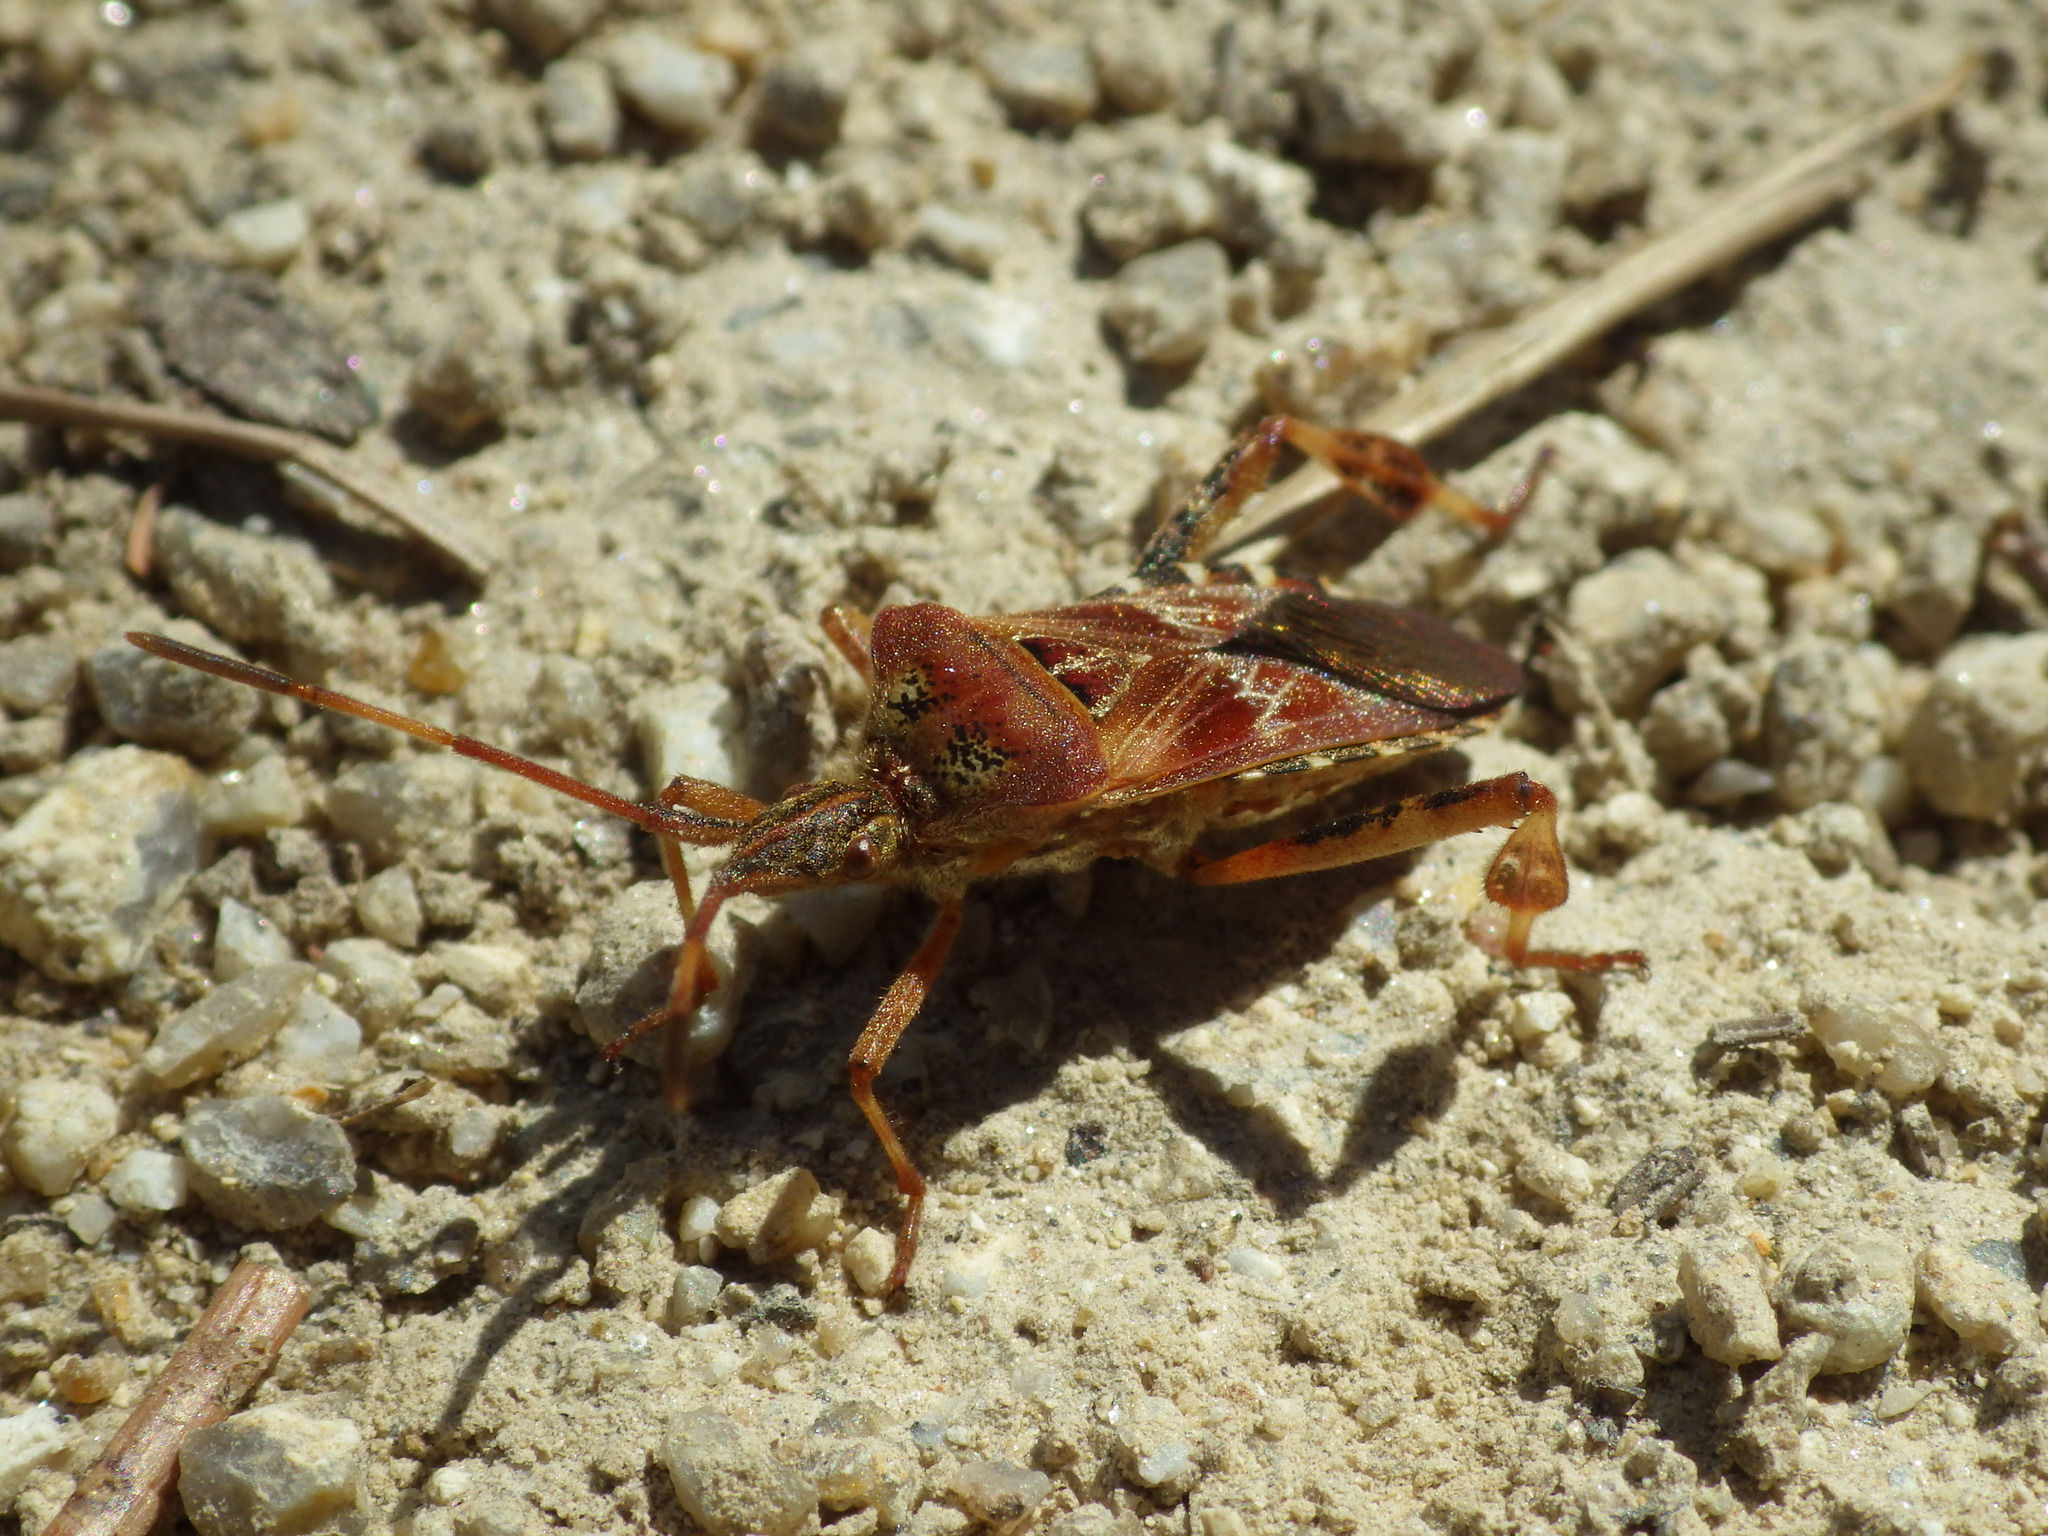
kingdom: Animalia
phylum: Arthropoda
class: Insecta
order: Hemiptera
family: Coreidae
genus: Leptoglossus
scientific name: Leptoglossus occidentalis
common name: Western conifer-seed bug
